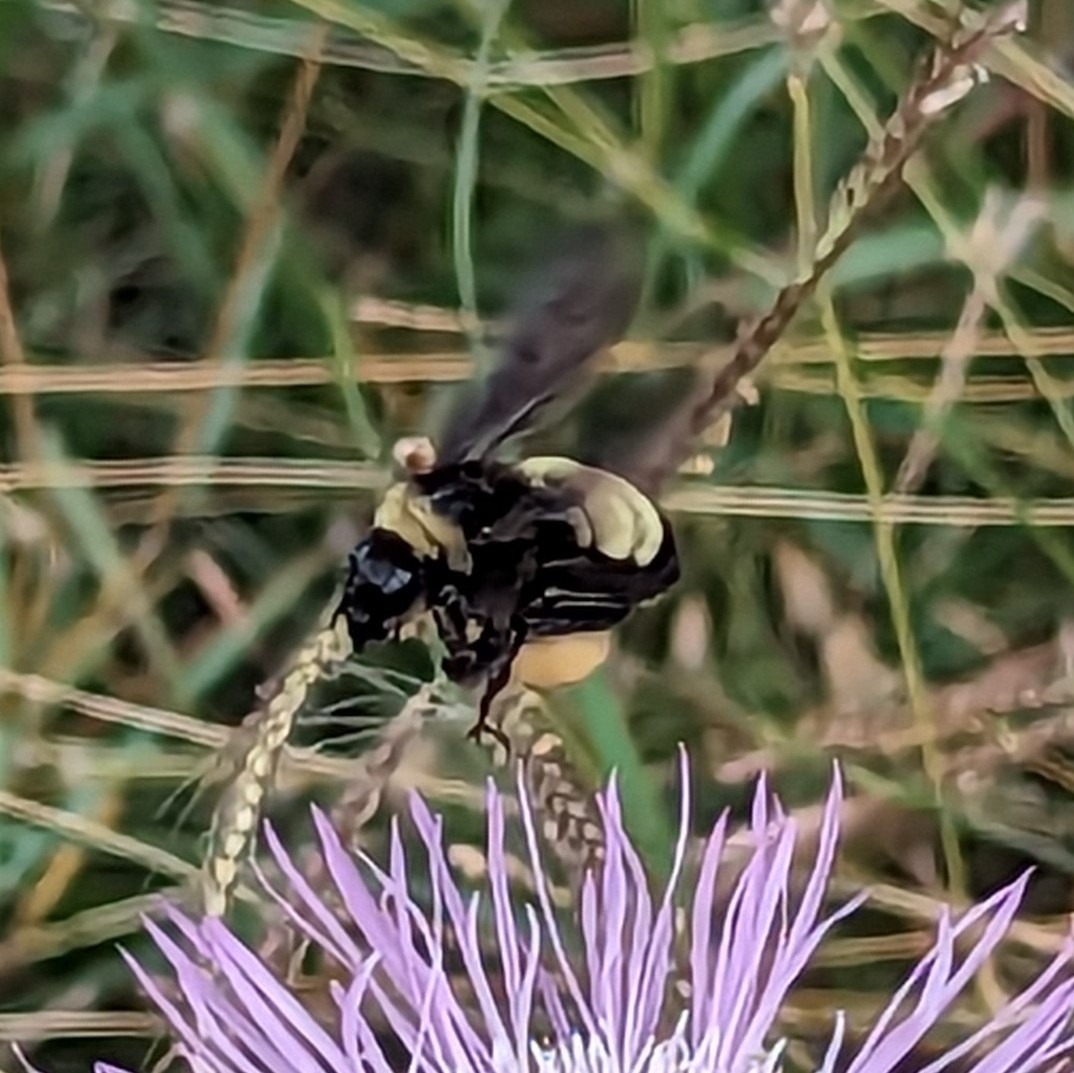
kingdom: Animalia
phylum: Arthropoda
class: Insecta
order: Hymenoptera
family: Apidae
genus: Bombus
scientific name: Bombus pensylvanicus
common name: Bumble bee
